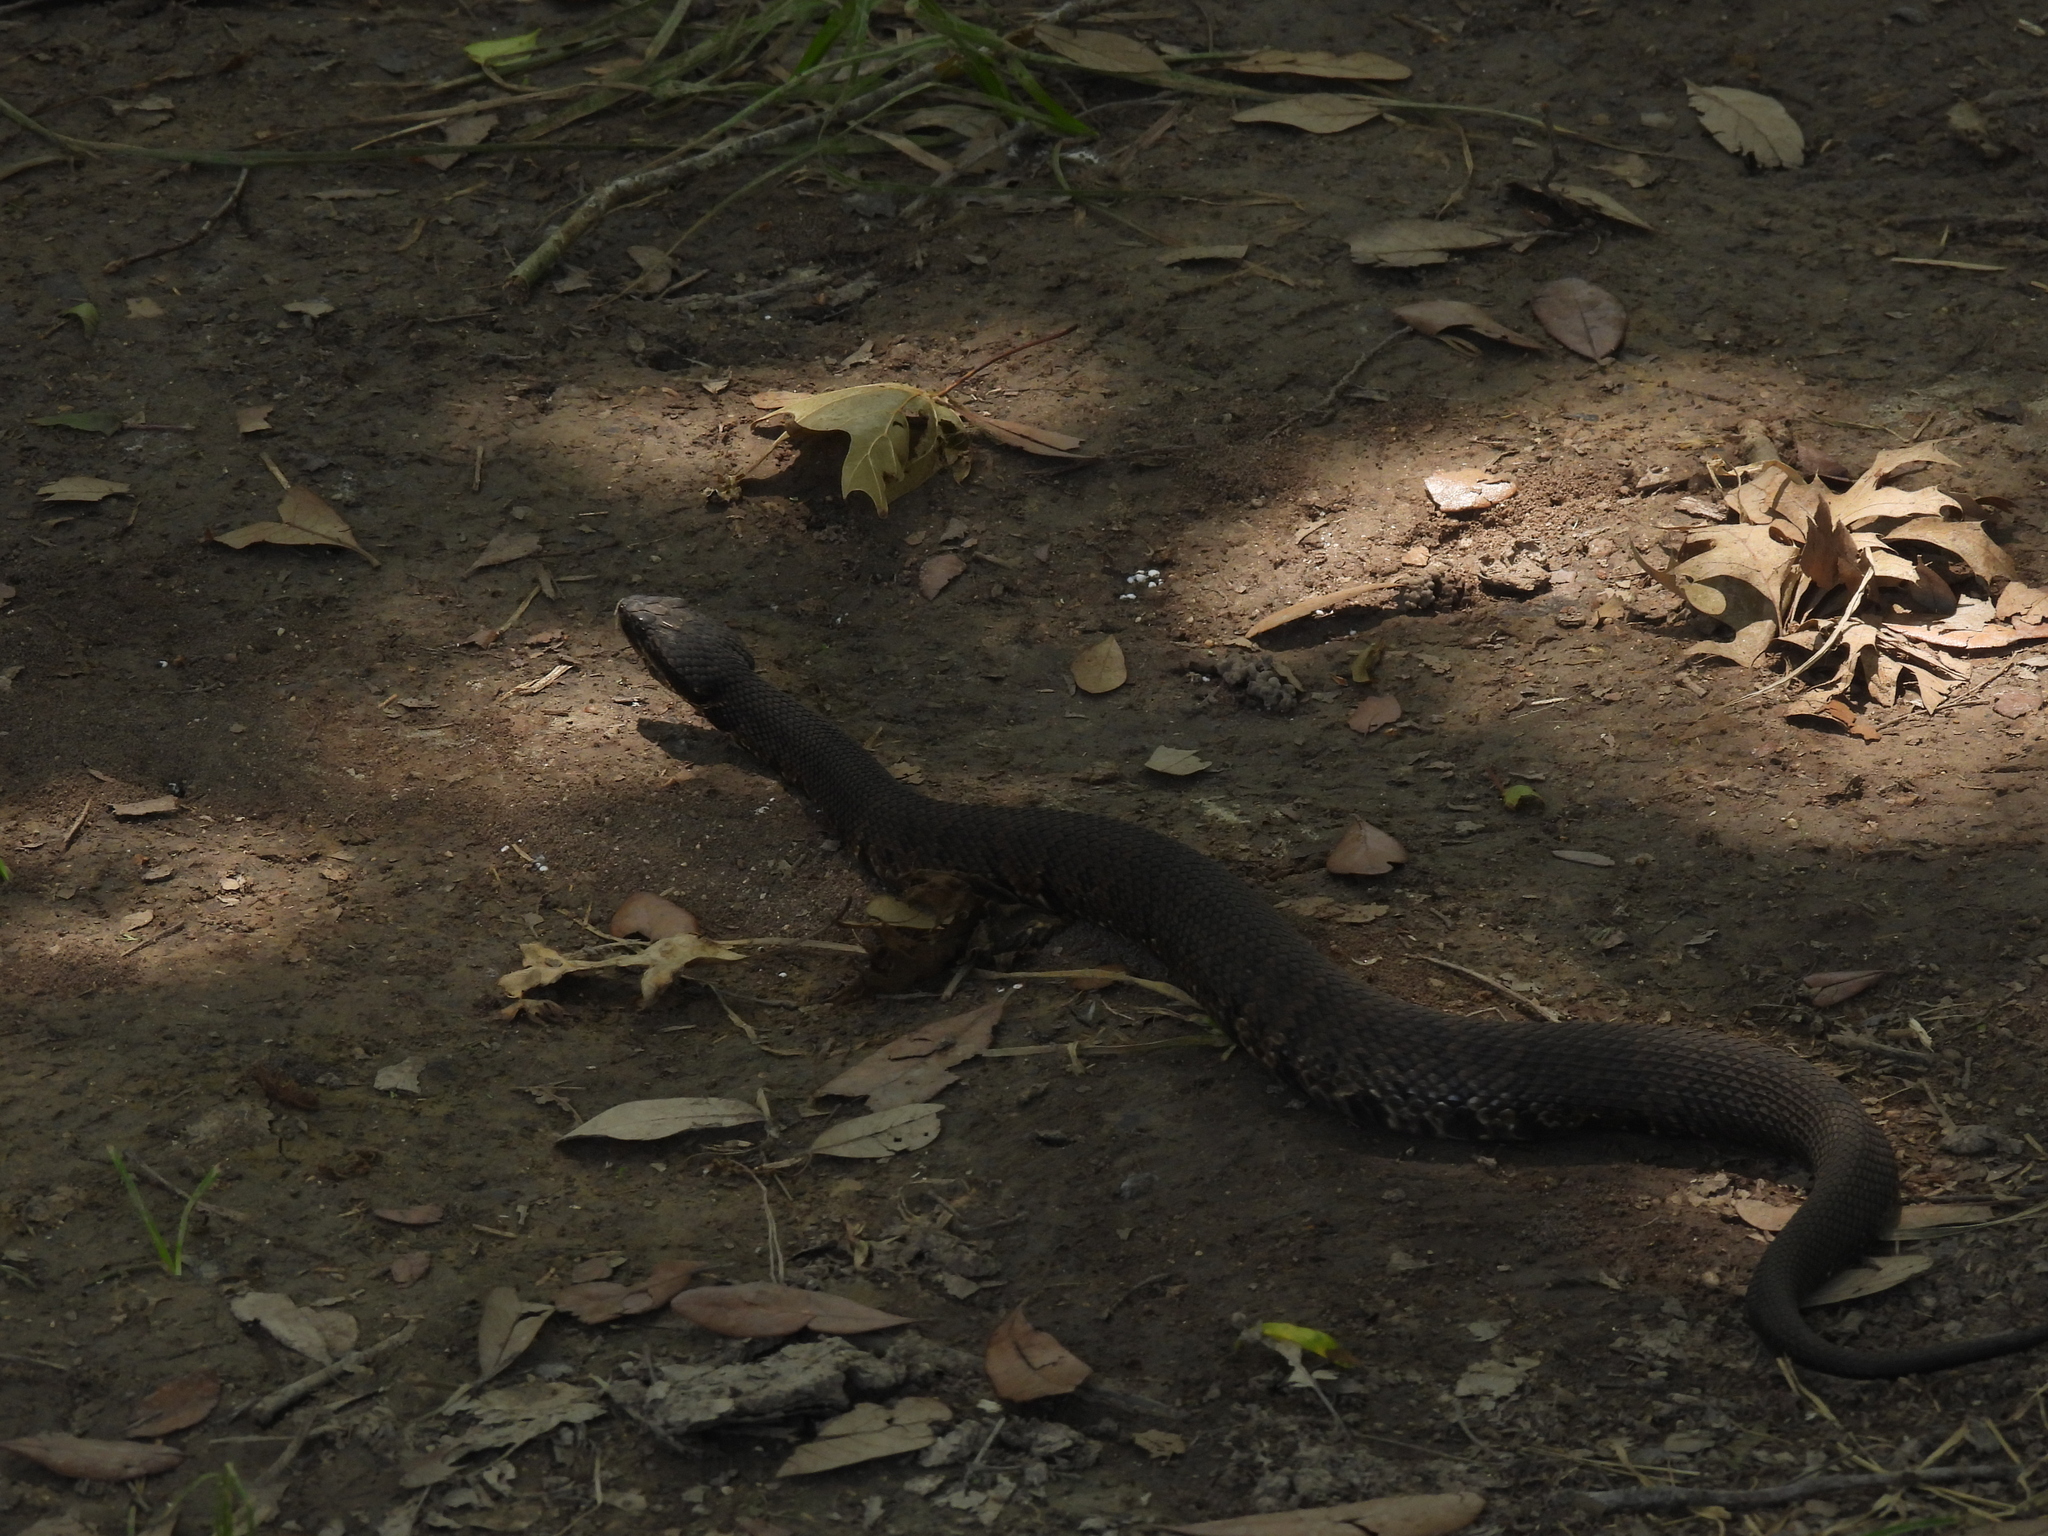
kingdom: Animalia
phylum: Chordata
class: Squamata
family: Viperidae
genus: Agkistrodon
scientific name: Agkistrodon piscivorus
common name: Cottonmouth
